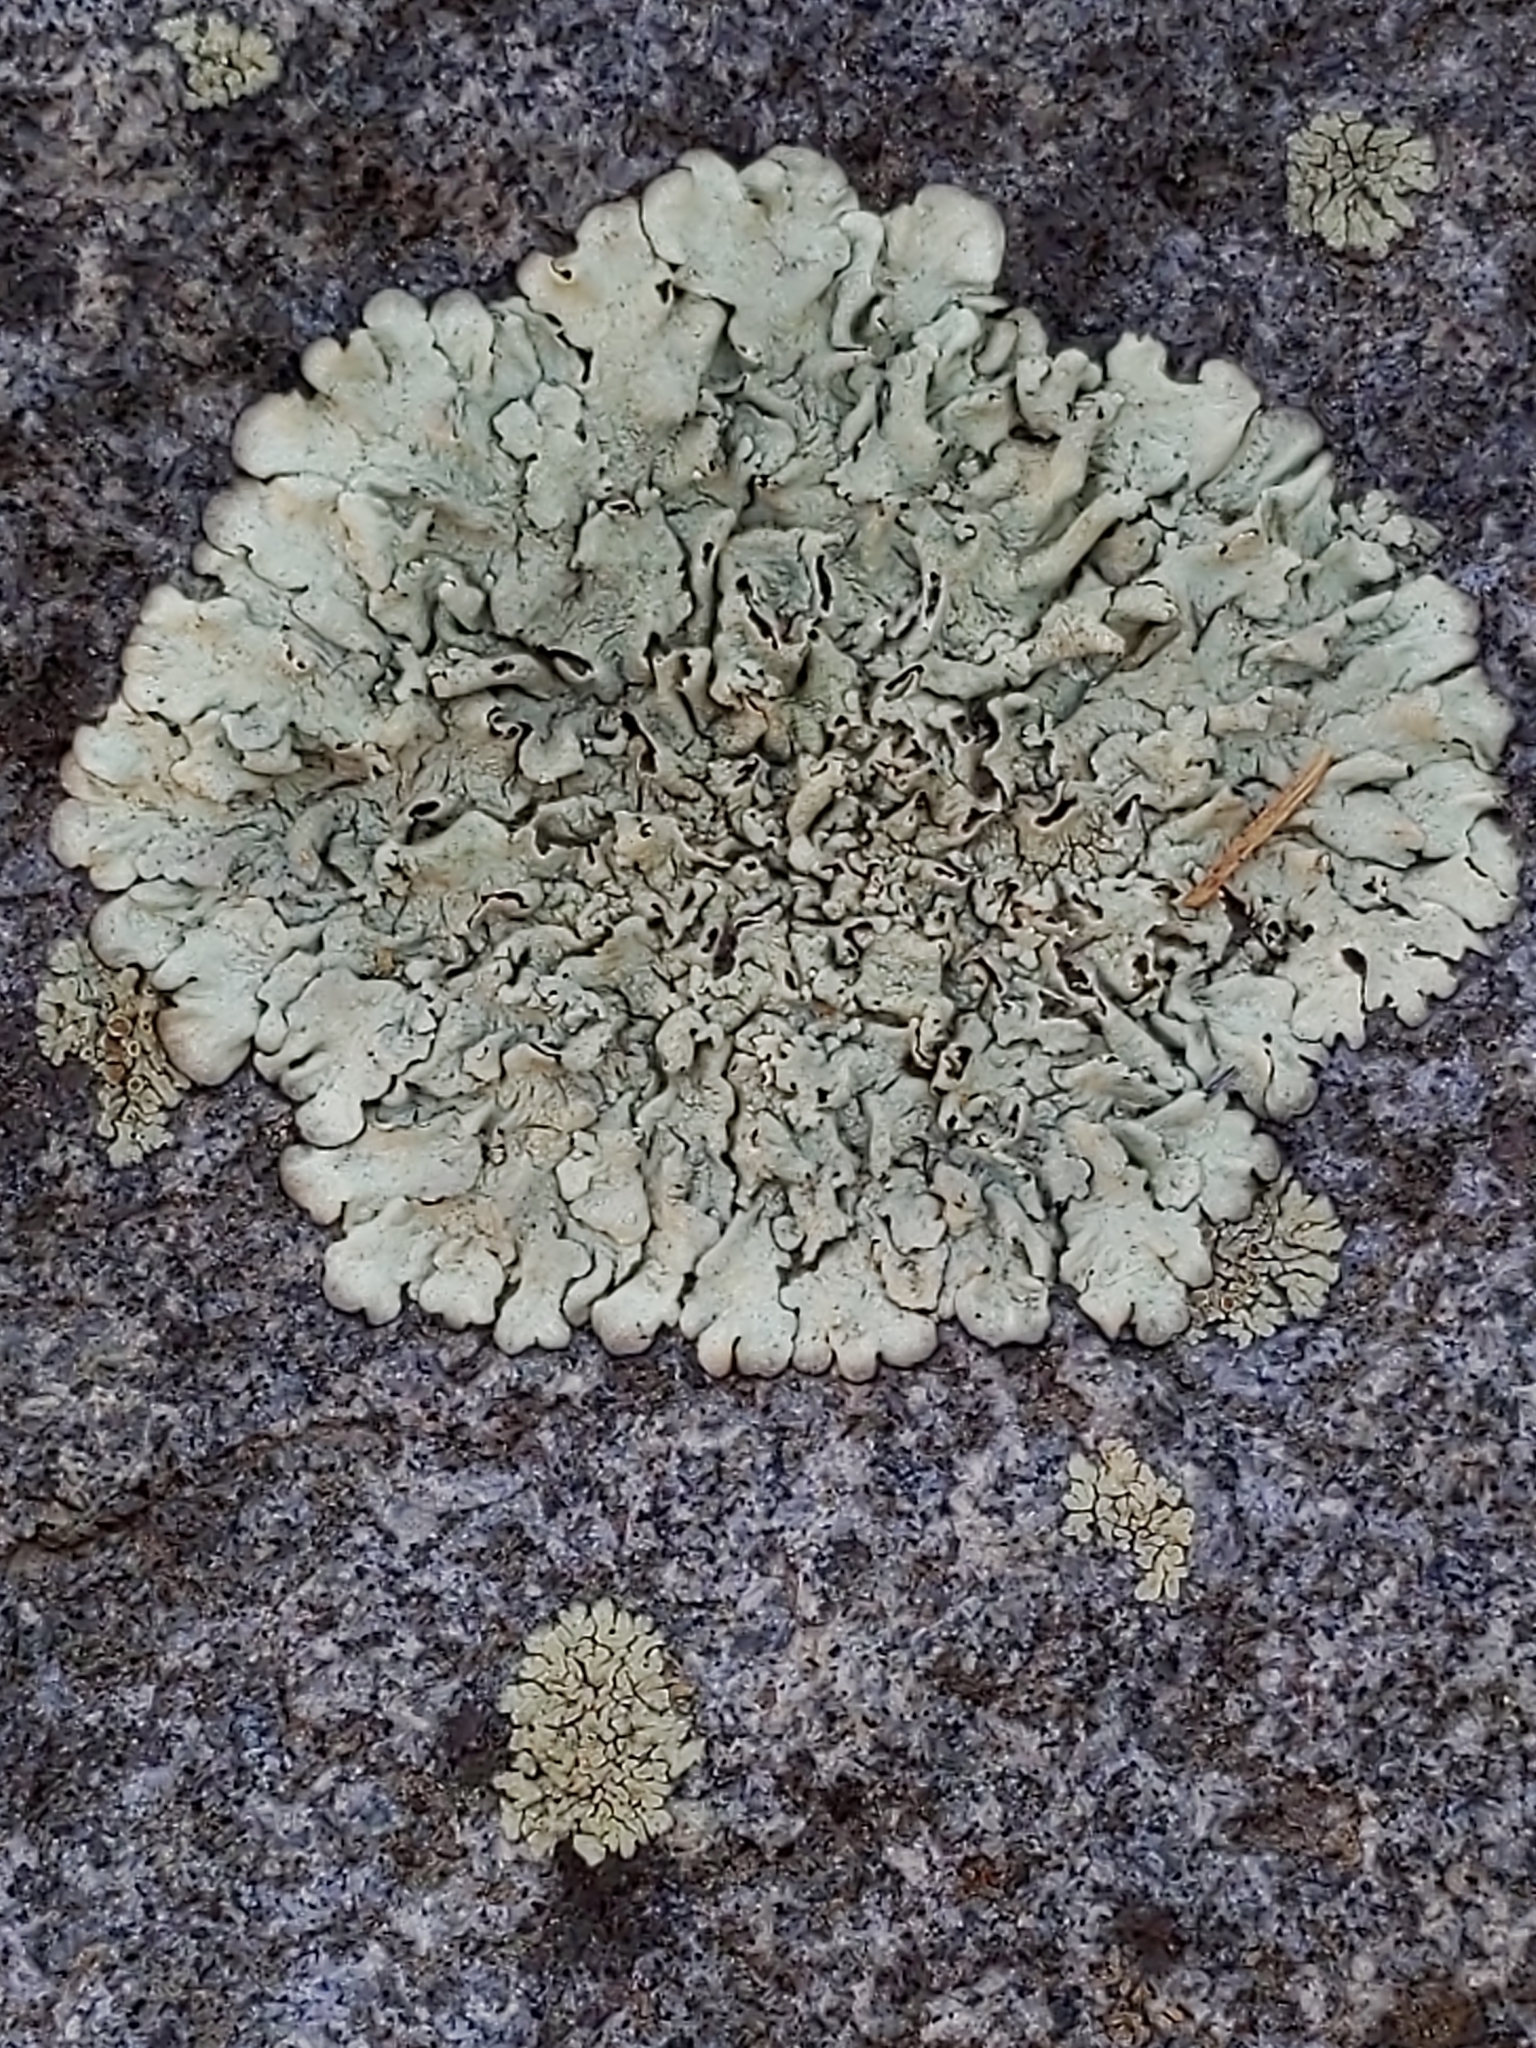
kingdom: Fungi
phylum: Ascomycota
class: Lecanoromycetes
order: Lecanorales
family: Parmeliaceae
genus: Xanthoparmelia
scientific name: Xanthoparmelia lineola
